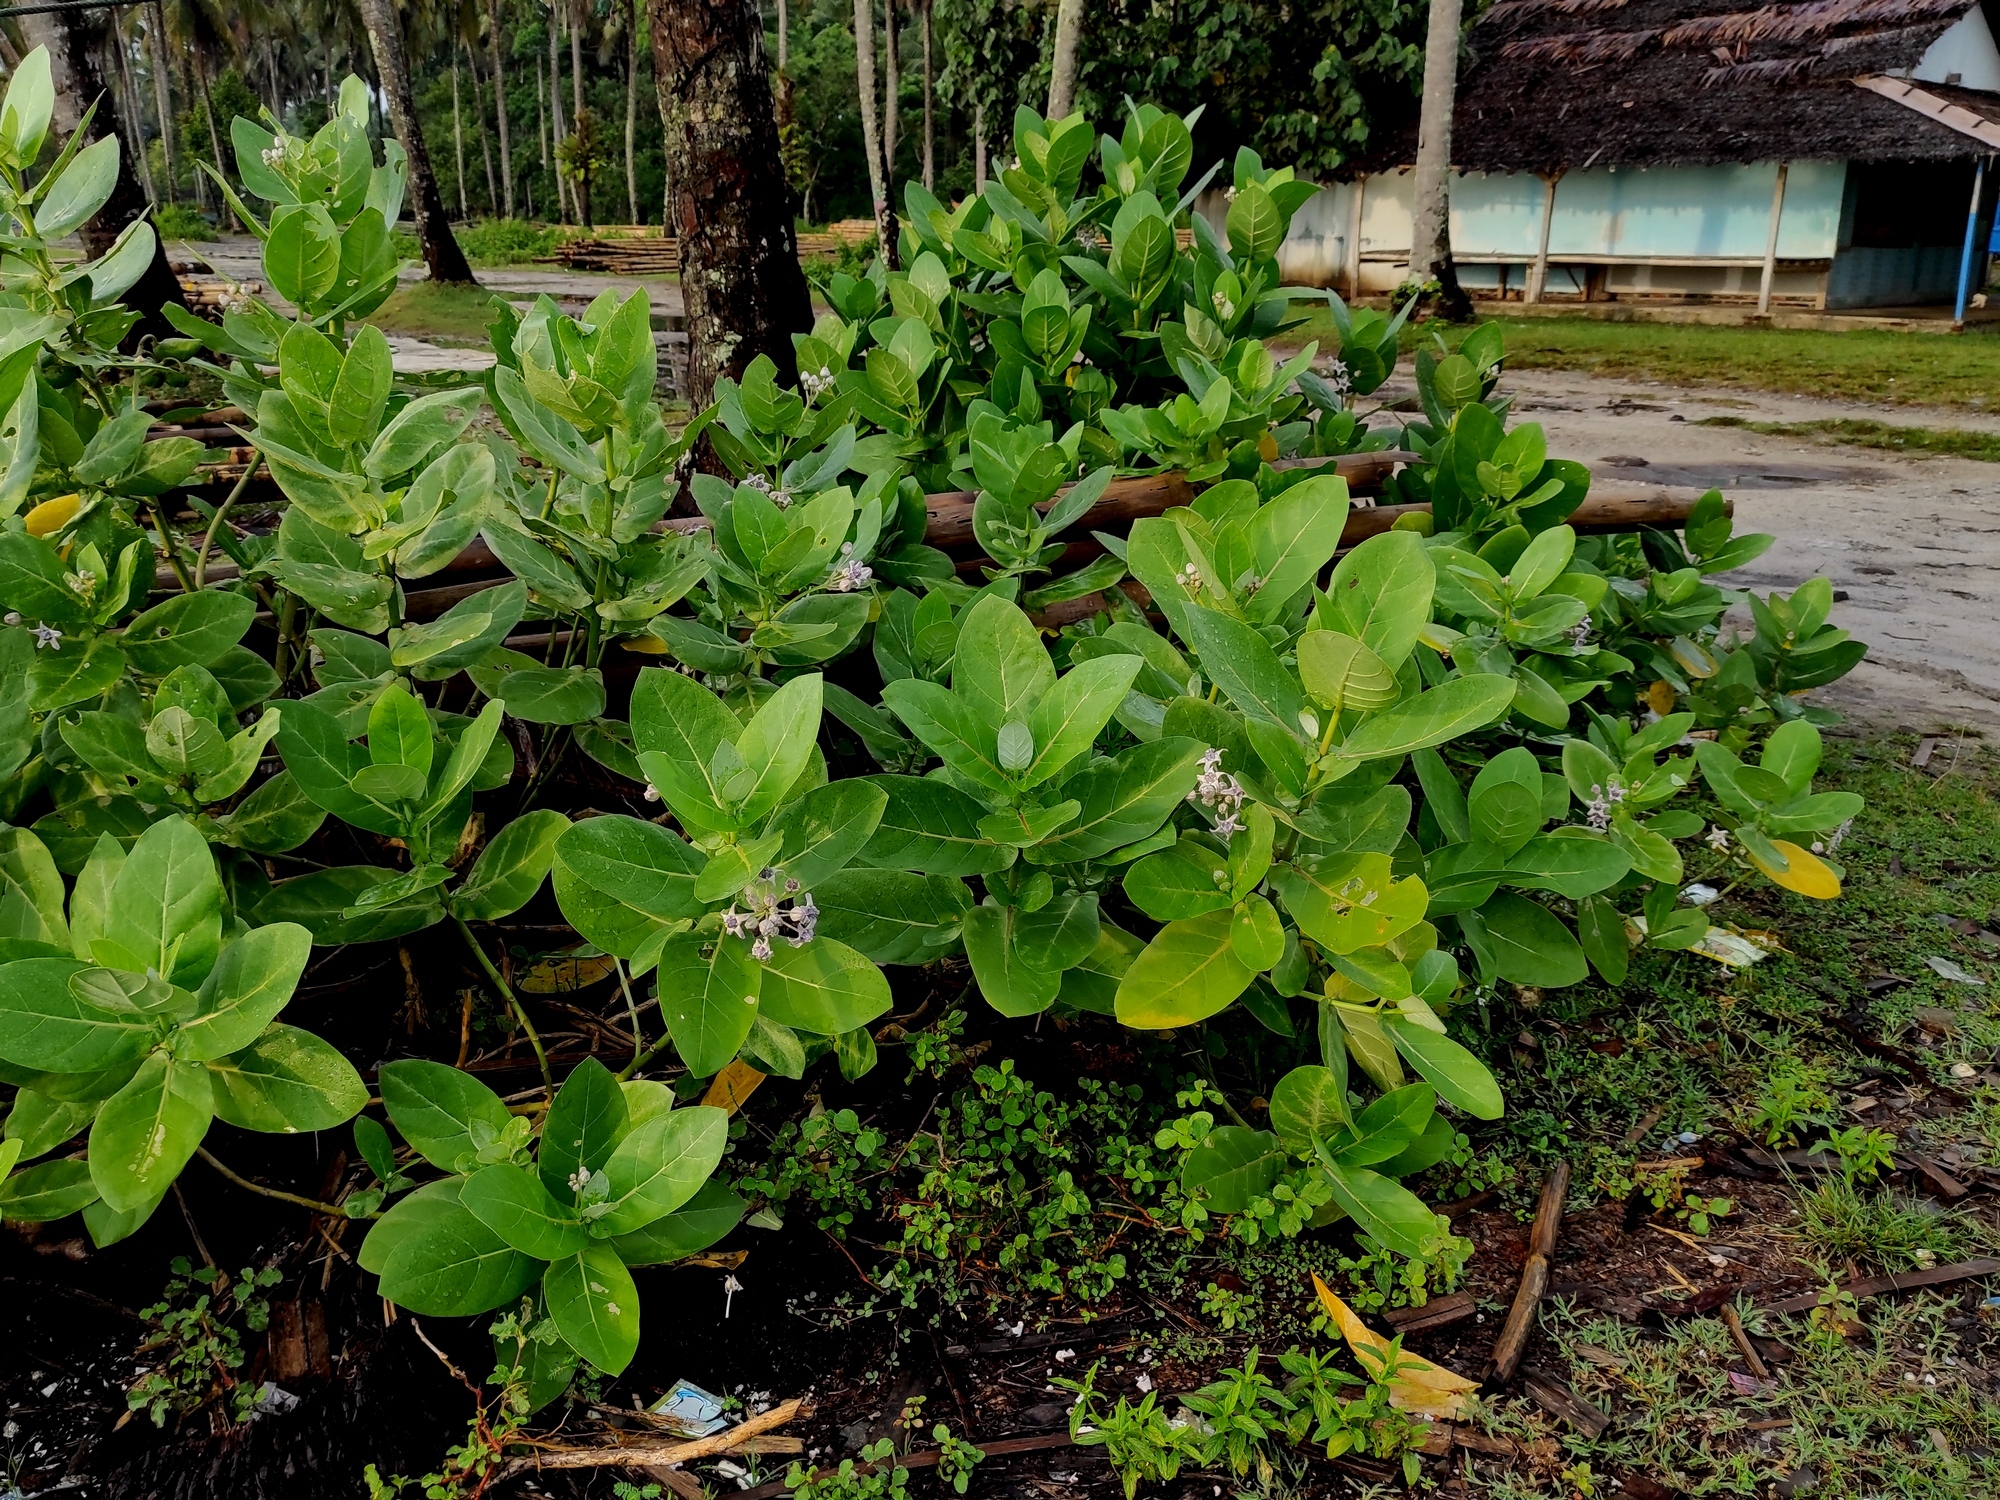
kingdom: Plantae
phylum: Tracheophyta
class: Magnoliopsida
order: Gentianales
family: Apocynaceae
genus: Calotropis
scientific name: Calotropis gigantea
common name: Crown flower
